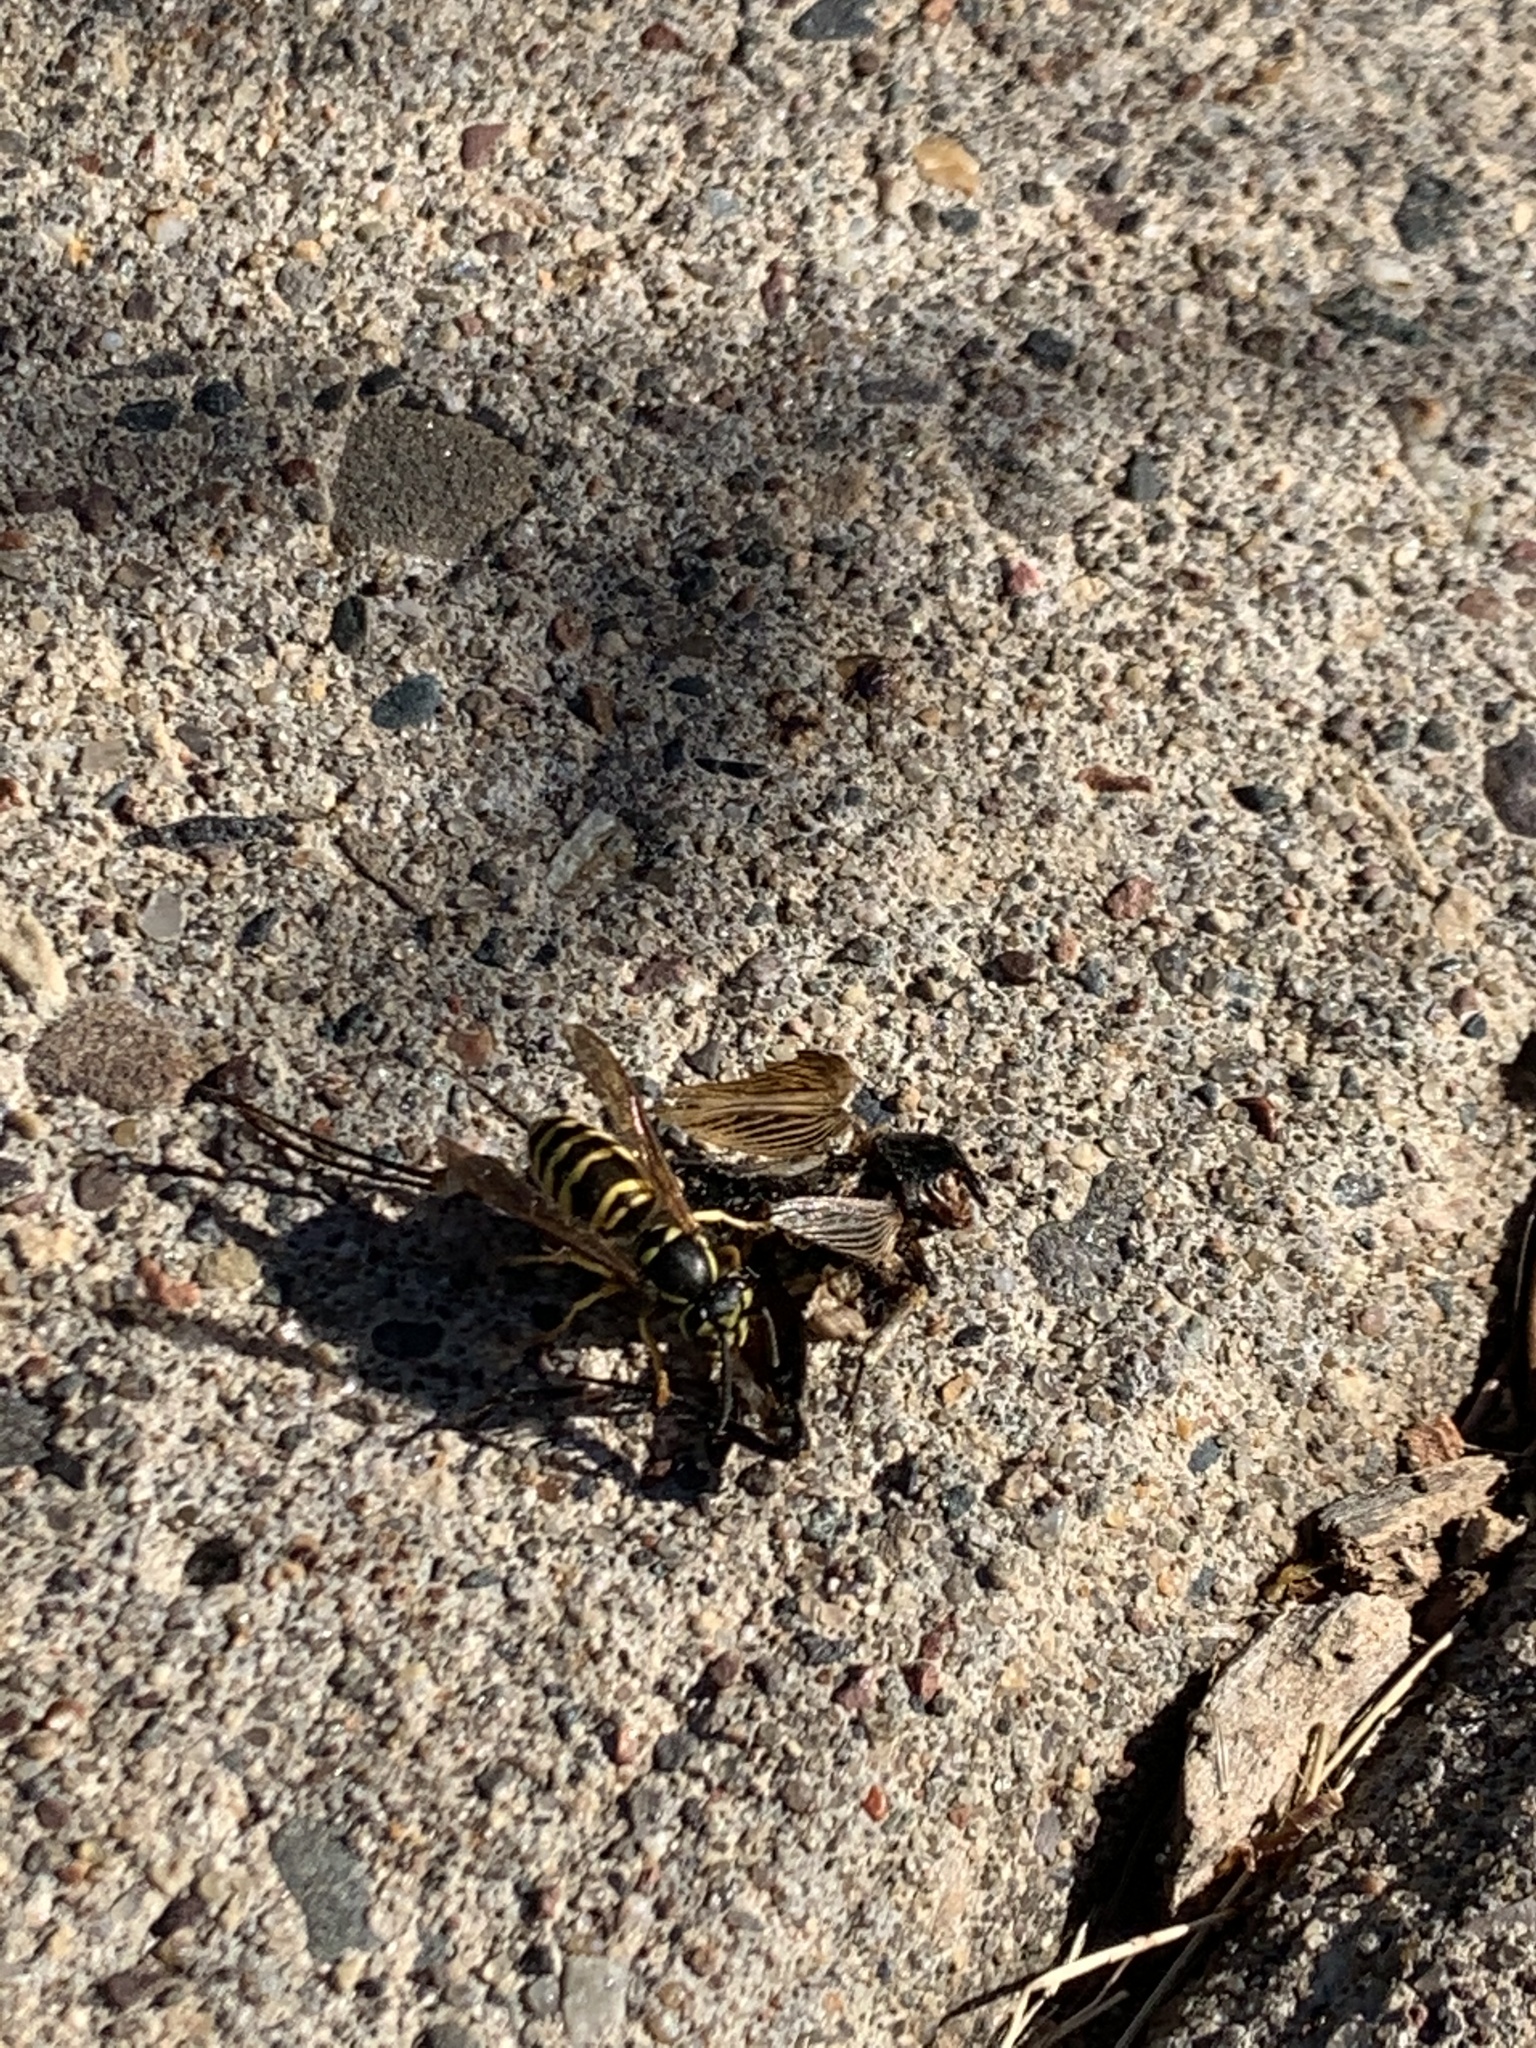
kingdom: Animalia
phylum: Arthropoda
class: Insecta
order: Hymenoptera
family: Vespidae
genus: Vespula
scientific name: Vespula maculifrons
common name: Eastern yellowjacket
